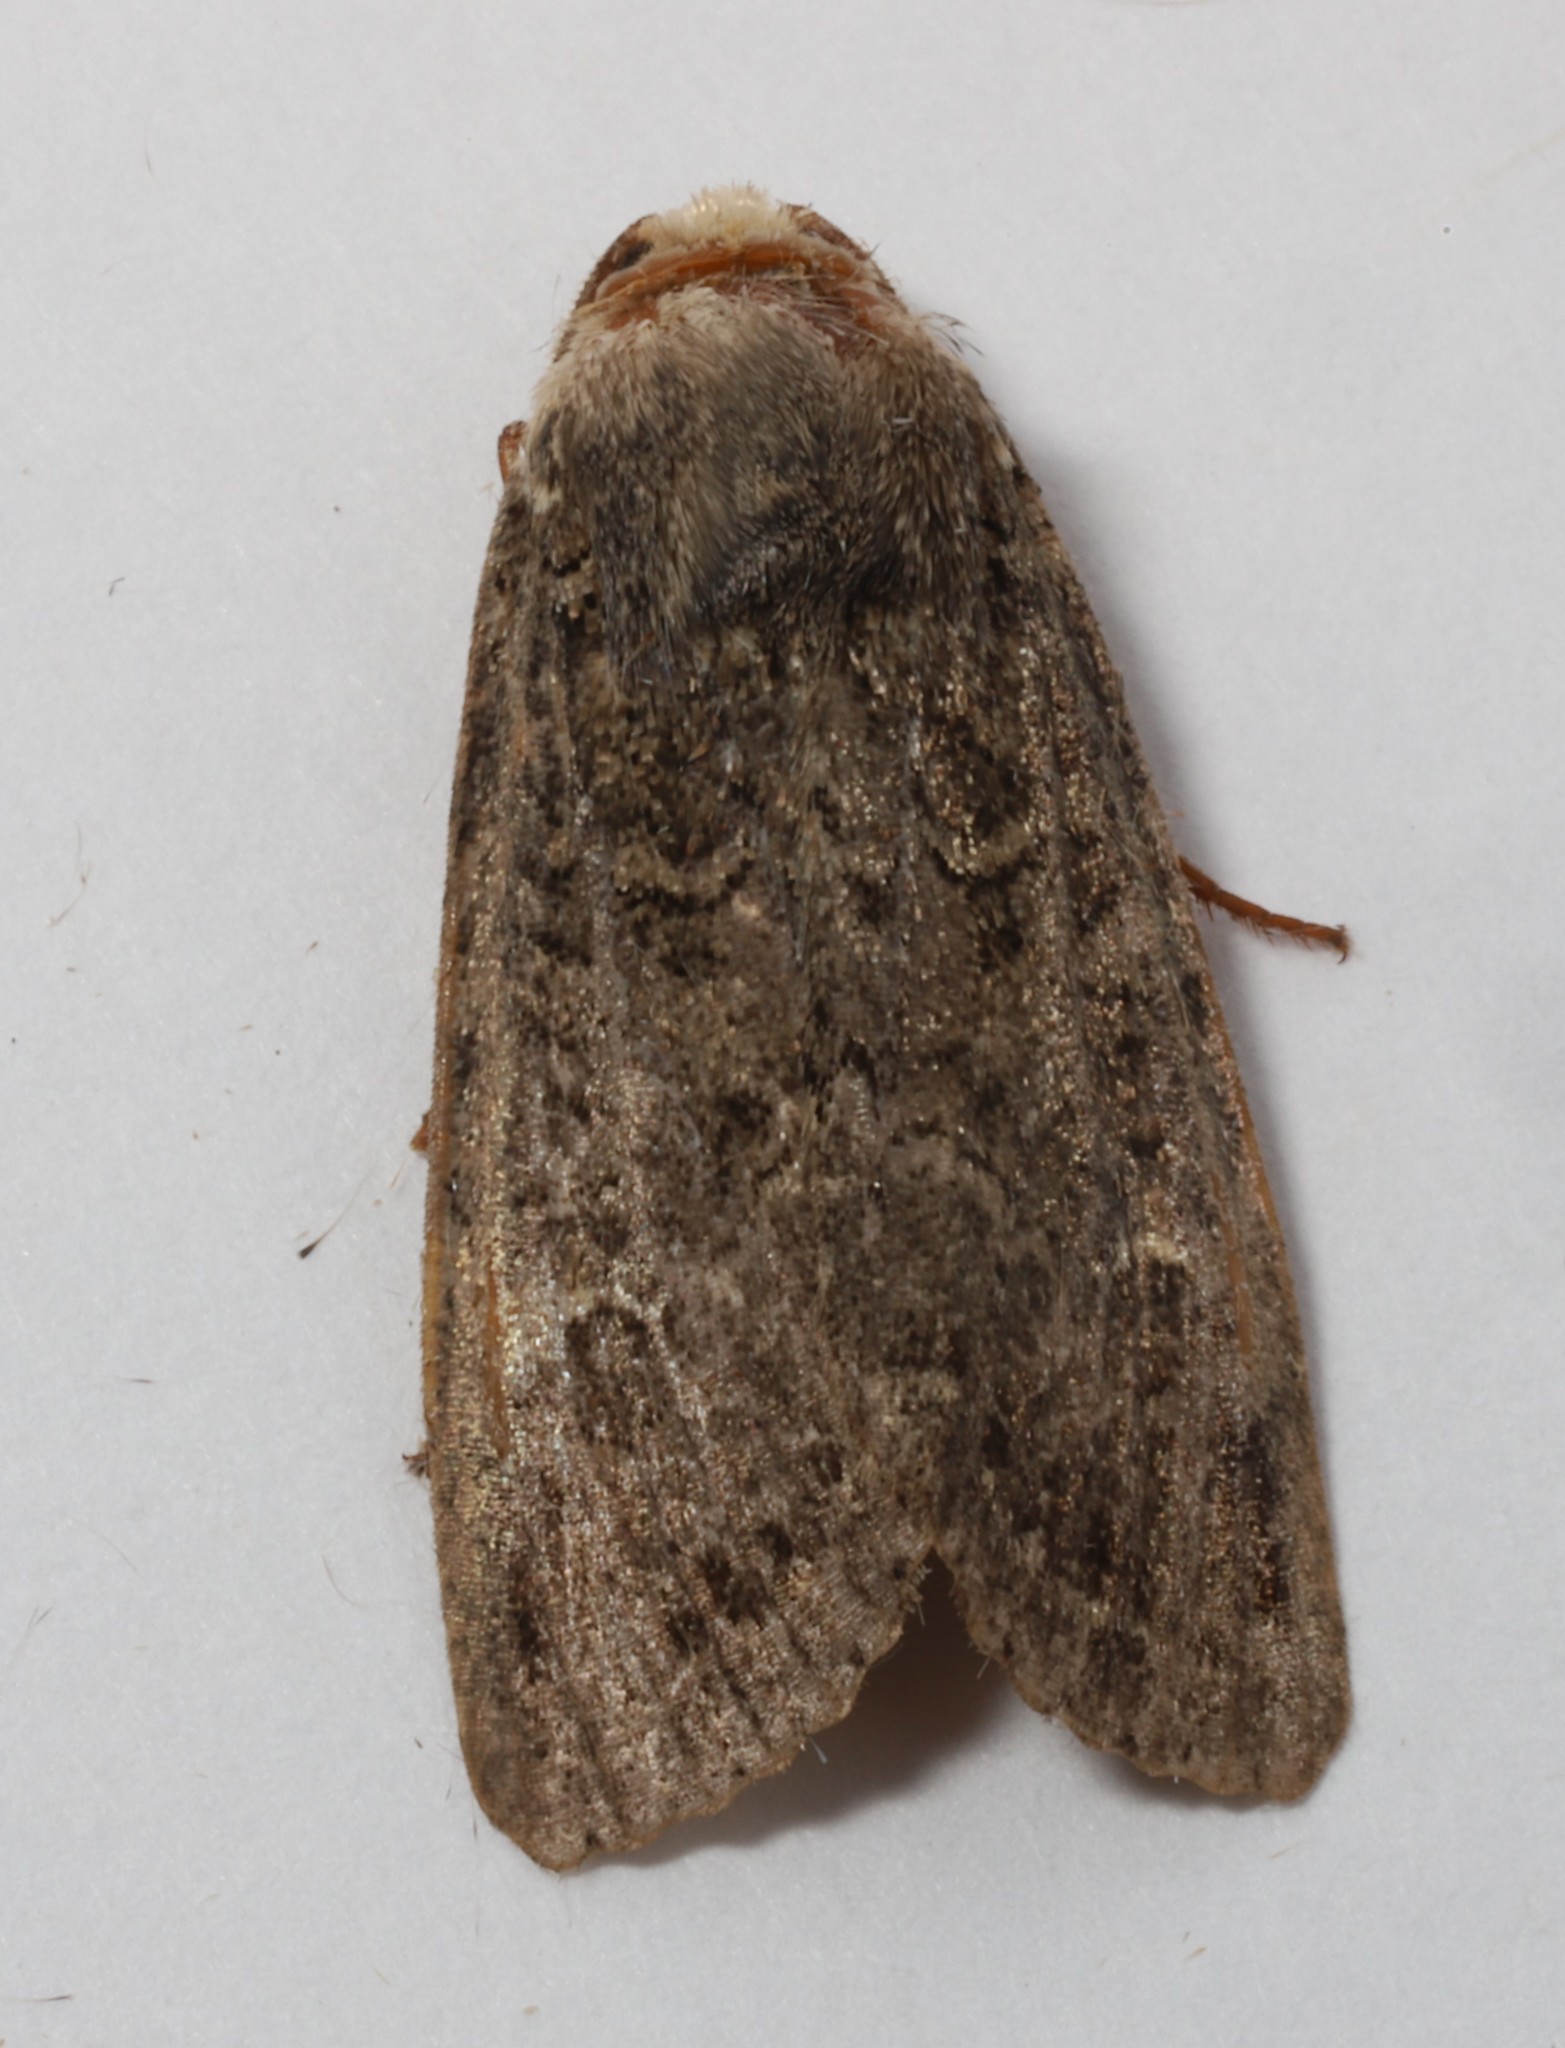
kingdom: Animalia
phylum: Arthropoda
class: Insecta
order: Lepidoptera
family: Noctuidae
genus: Apamea
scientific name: Apamea devastator
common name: Glassy cutworm
